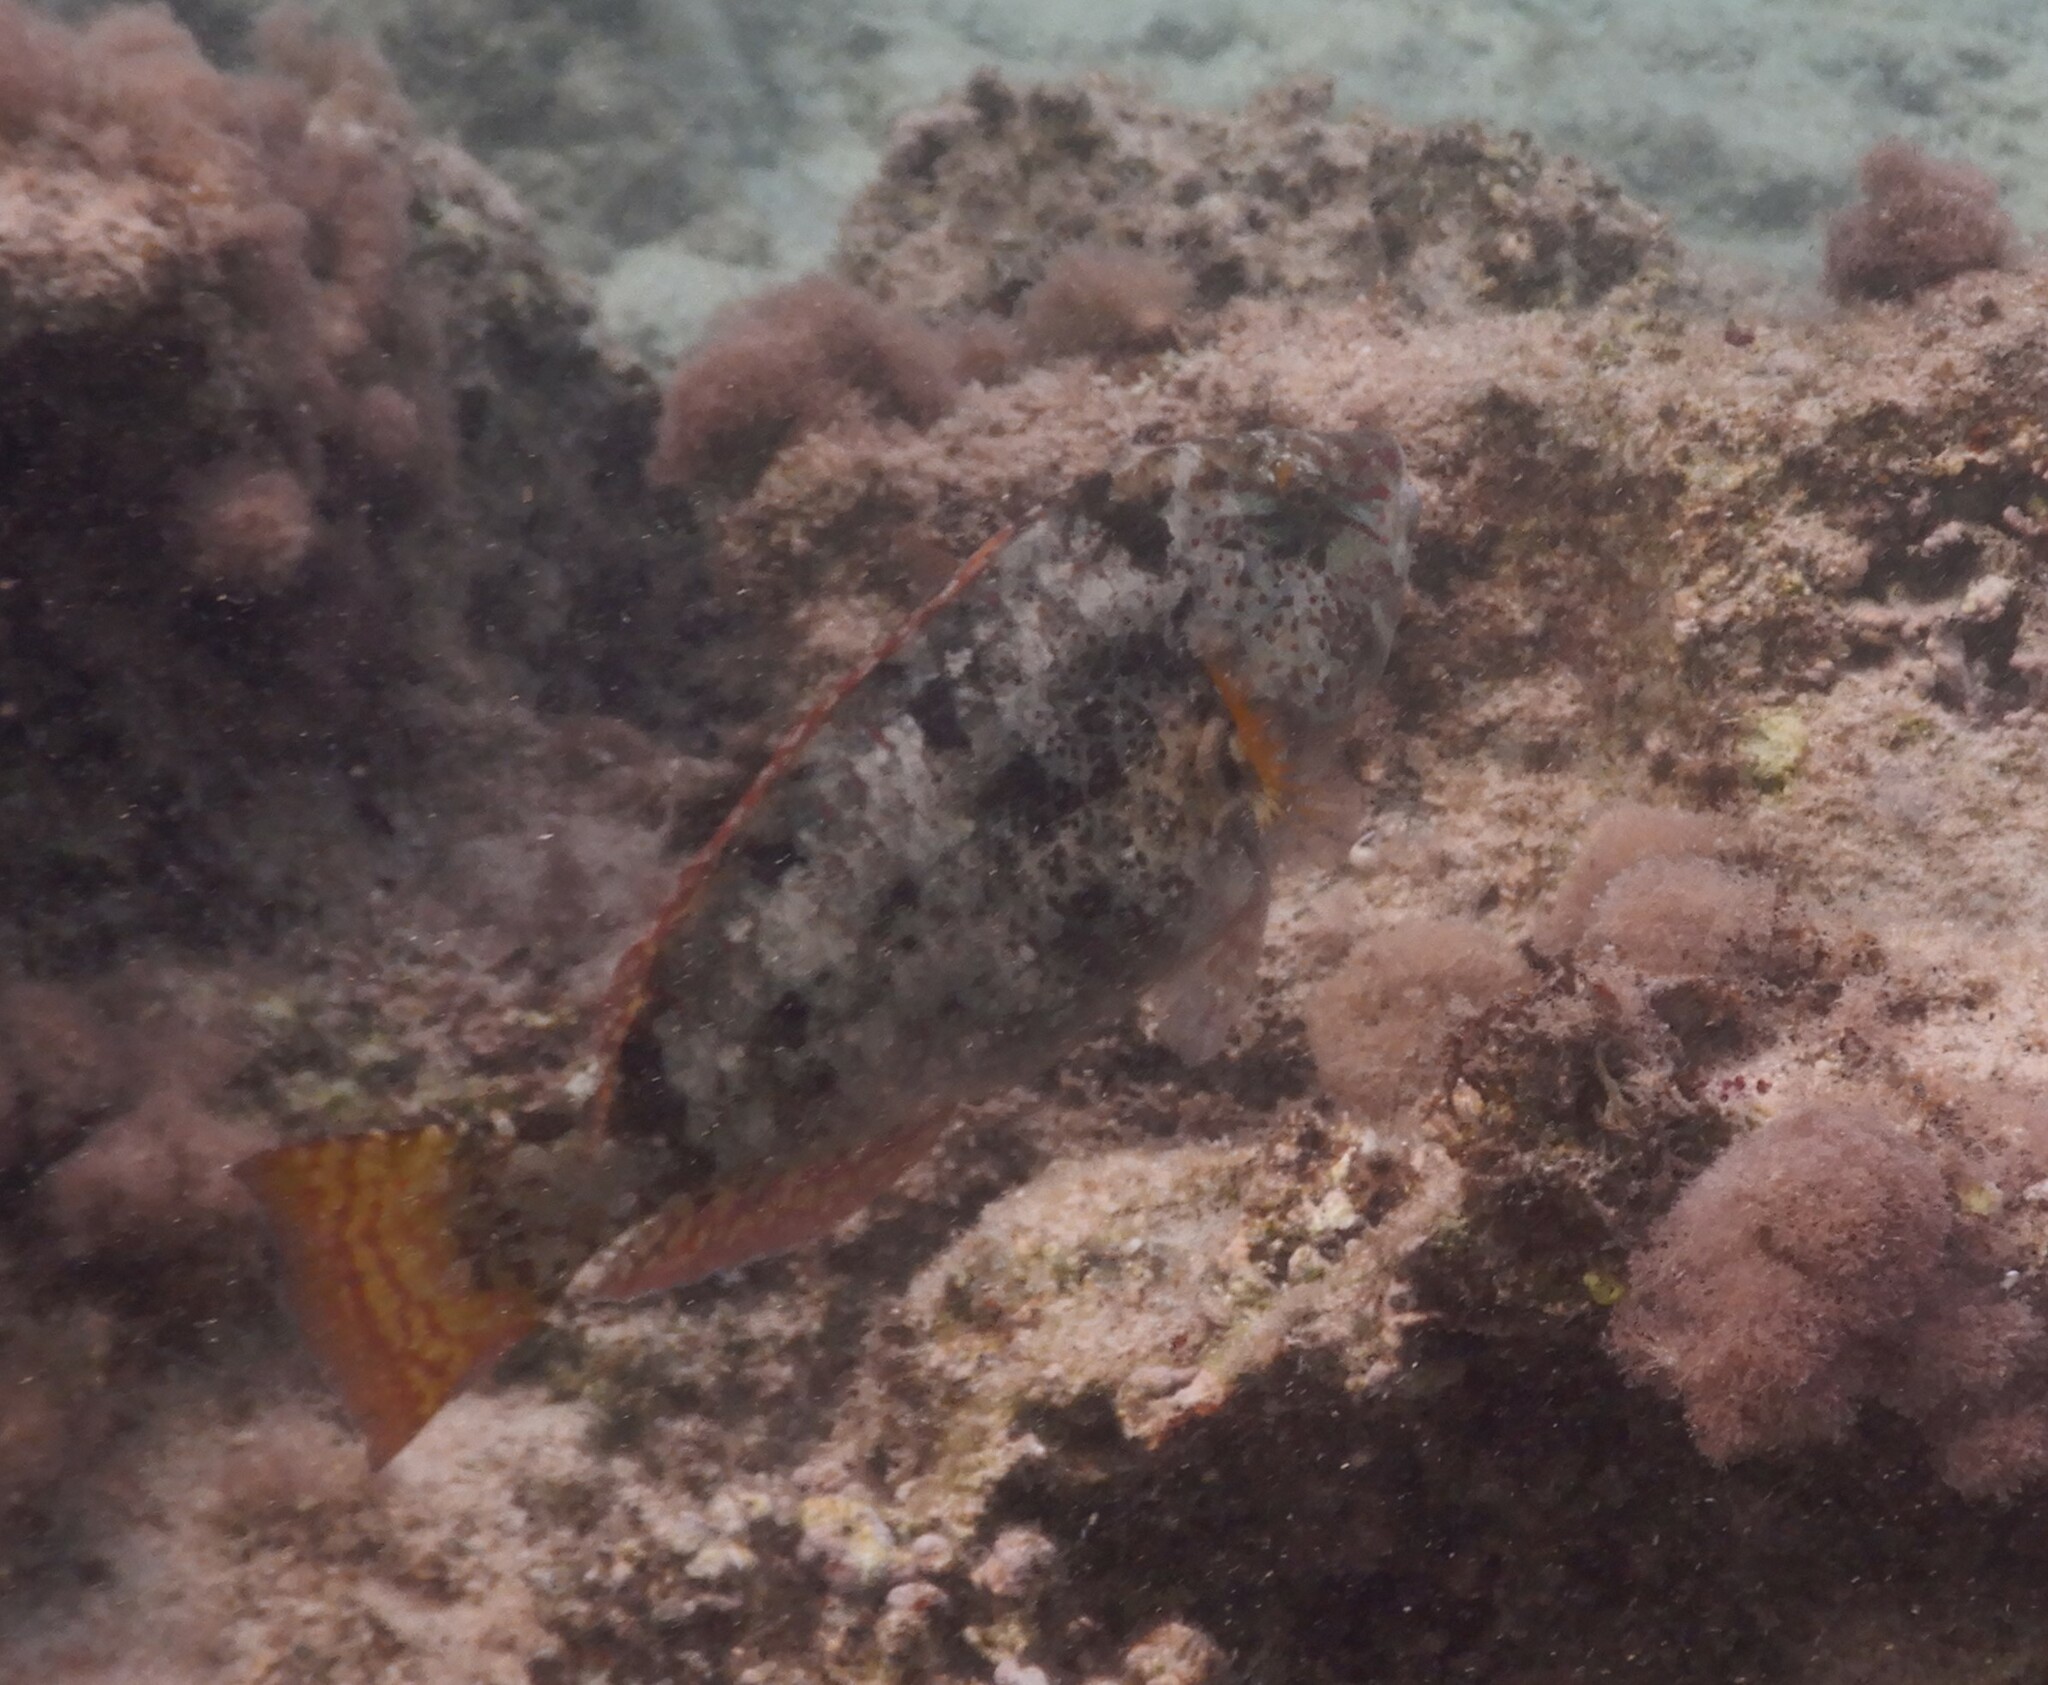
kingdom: Animalia
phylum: Chordata
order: Perciformes
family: Scaridae
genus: Calotomus
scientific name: Calotomus viridescens
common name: Dotted parrotfish
